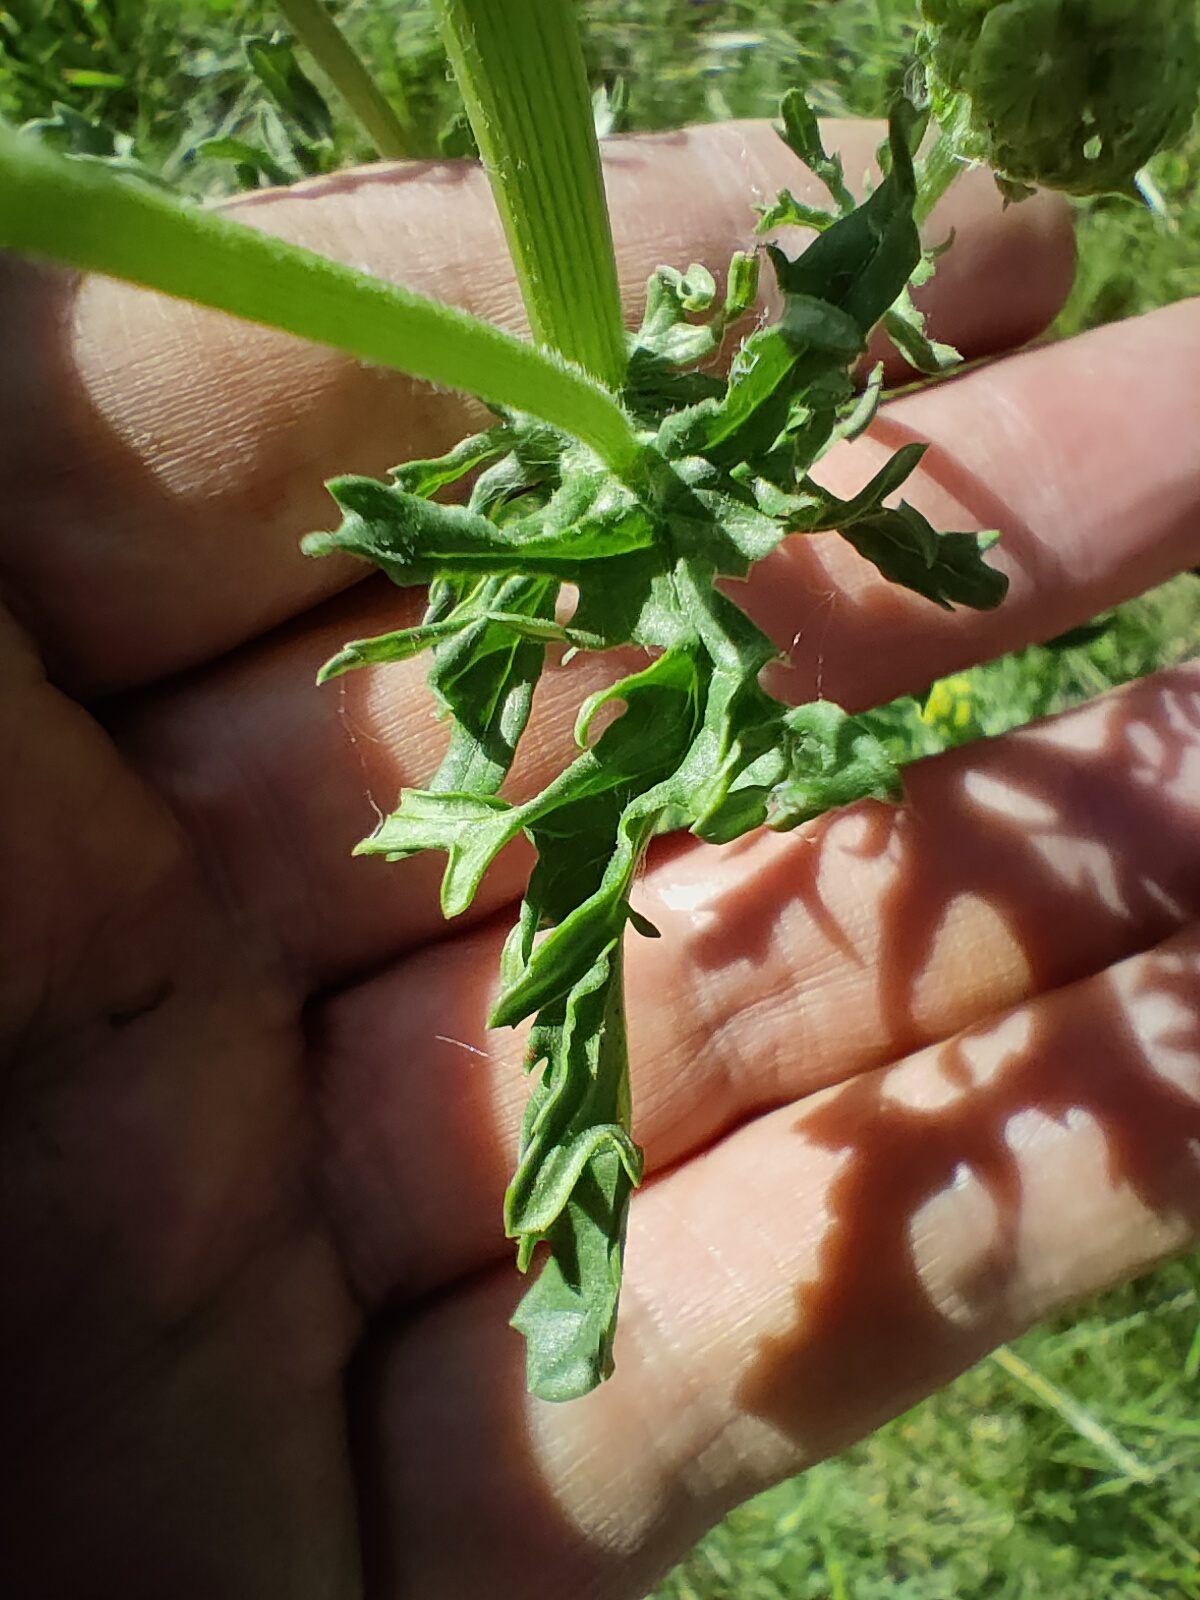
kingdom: Plantae
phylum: Tracheophyta
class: Magnoliopsida
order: Asterales
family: Asteraceae
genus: Jacobaea
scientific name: Jacobaea vulgaris
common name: Stinking willie
